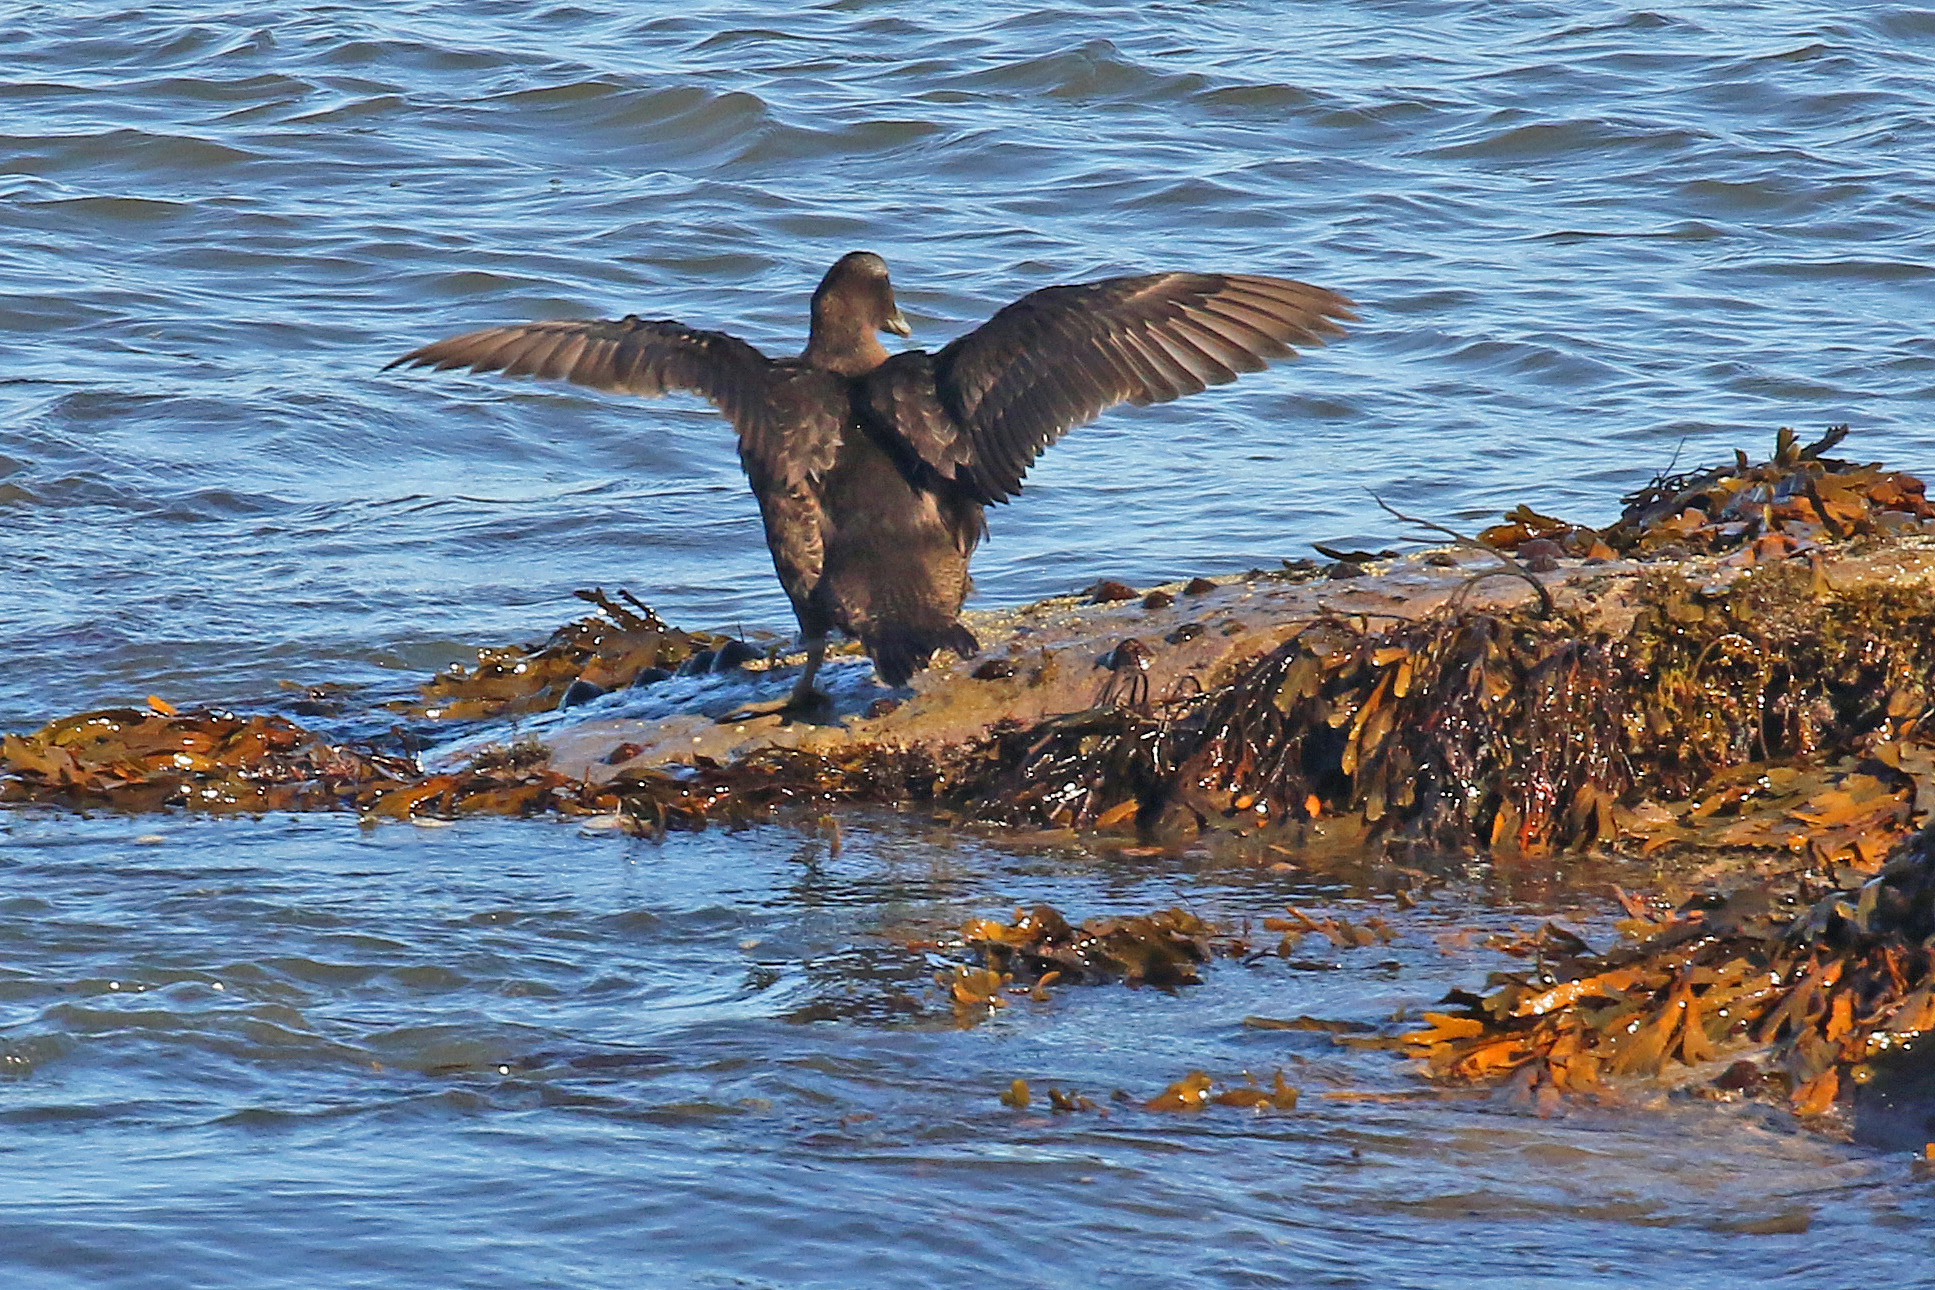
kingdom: Animalia
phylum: Chordata
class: Aves
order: Anseriformes
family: Anatidae
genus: Somateria
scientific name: Somateria mollissima
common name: Common eider
